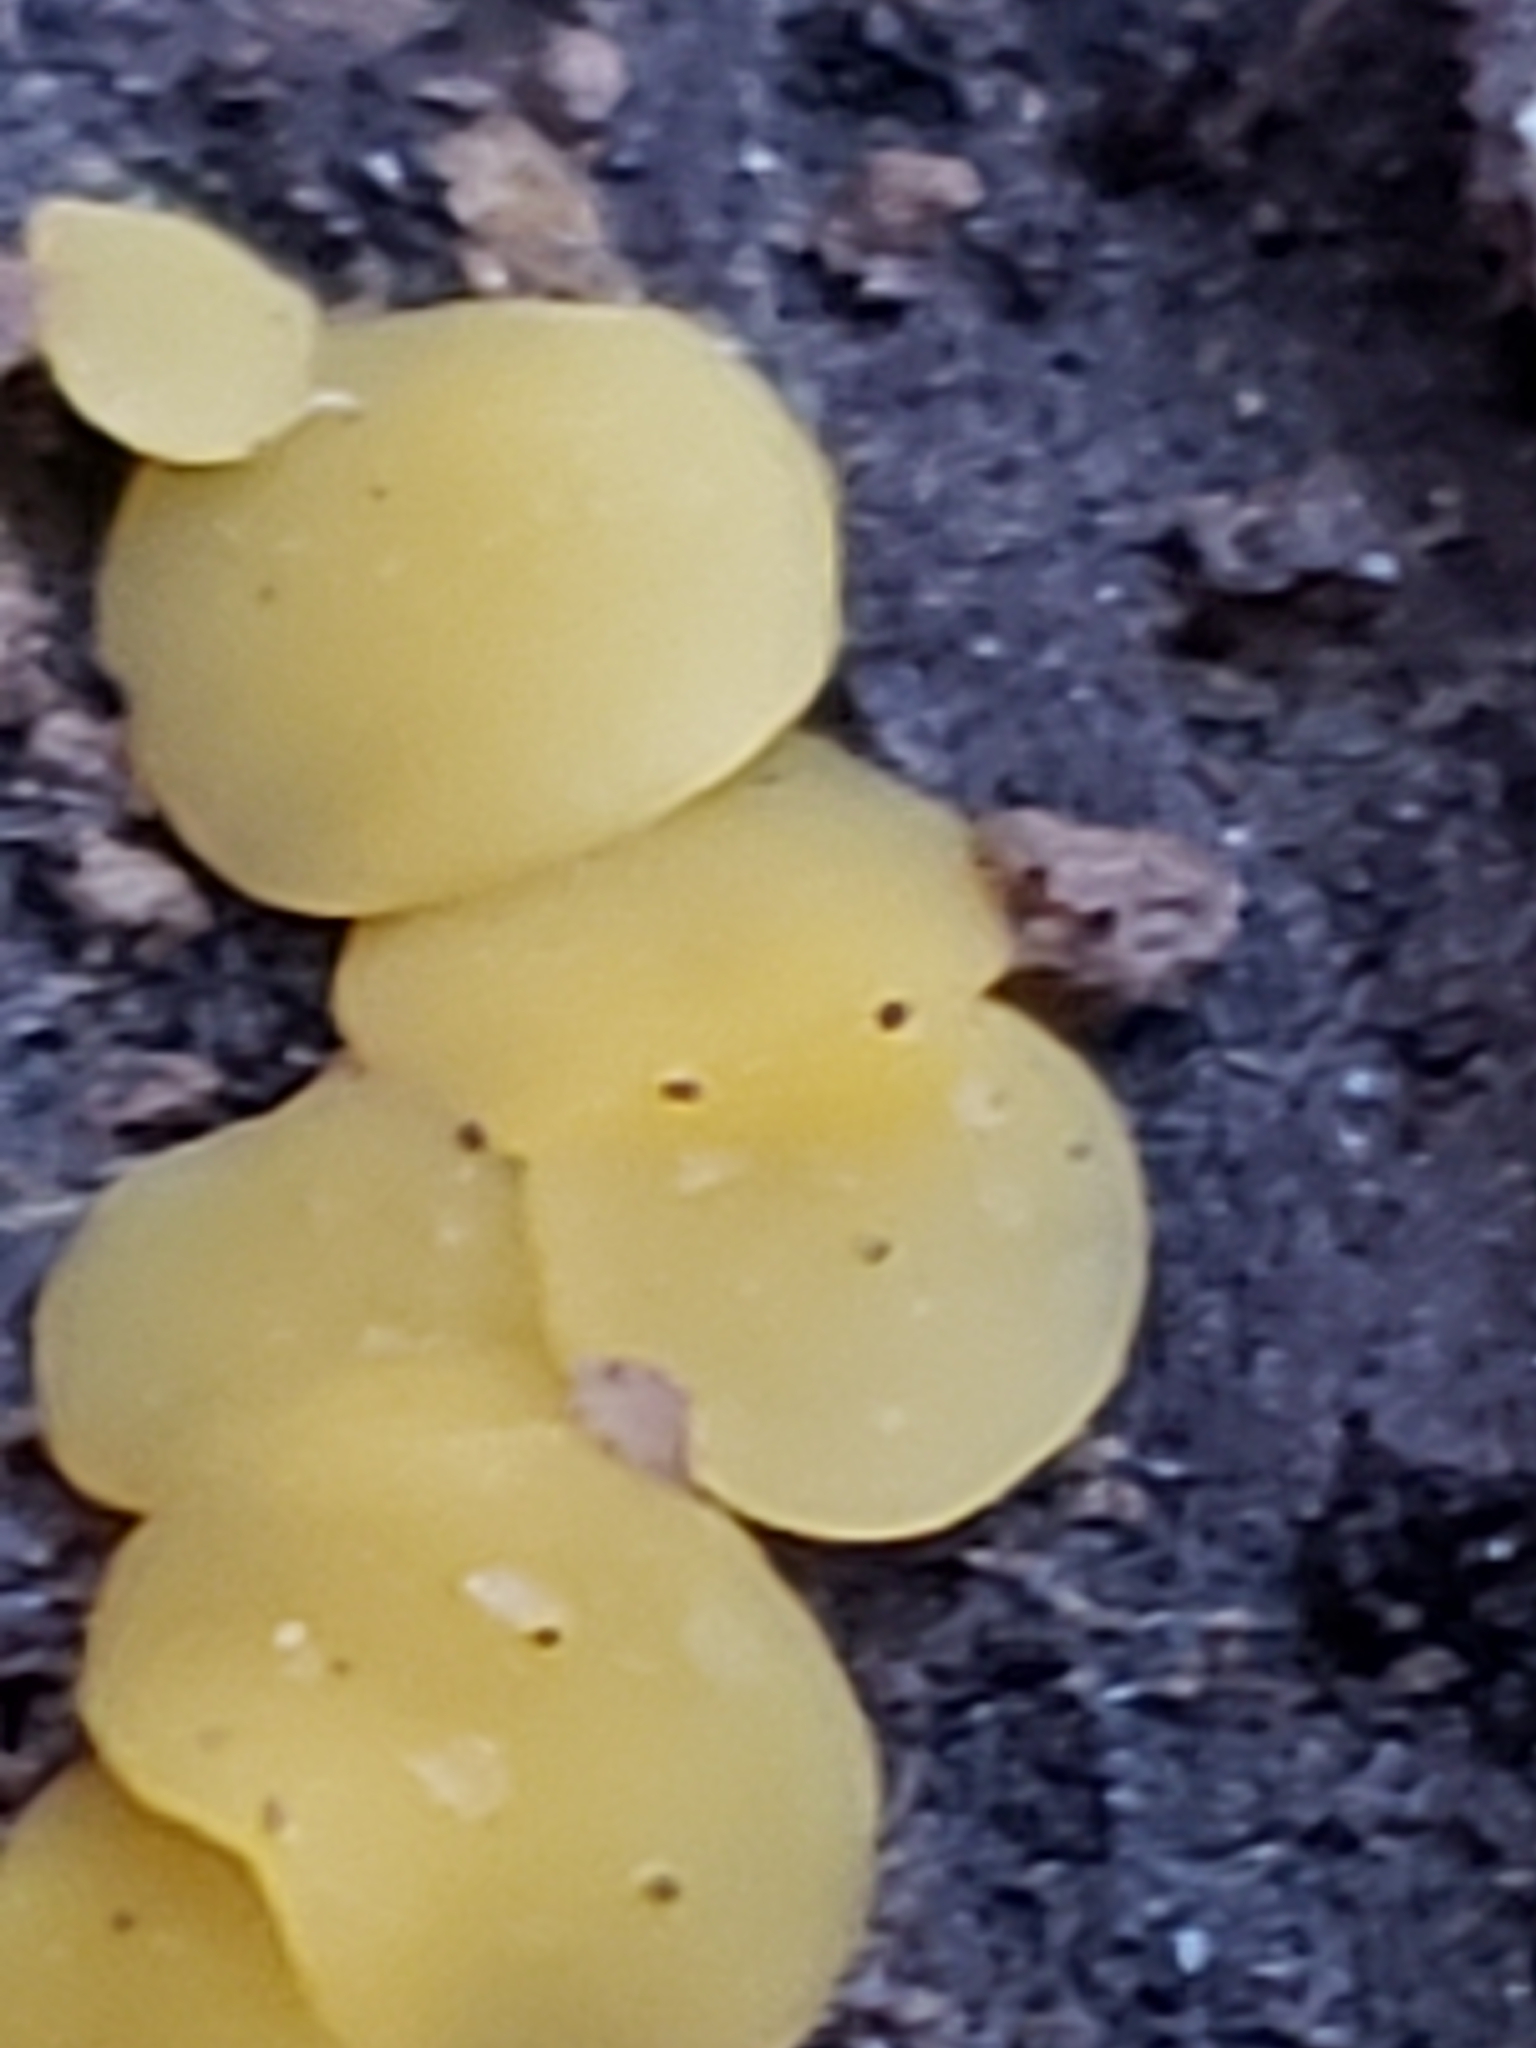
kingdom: Fungi
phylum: Ascomycota
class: Leotiomycetes
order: Helotiales
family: Pezizellaceae
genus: Calycina
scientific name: Calycina citrina
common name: Yellow fairy cups
